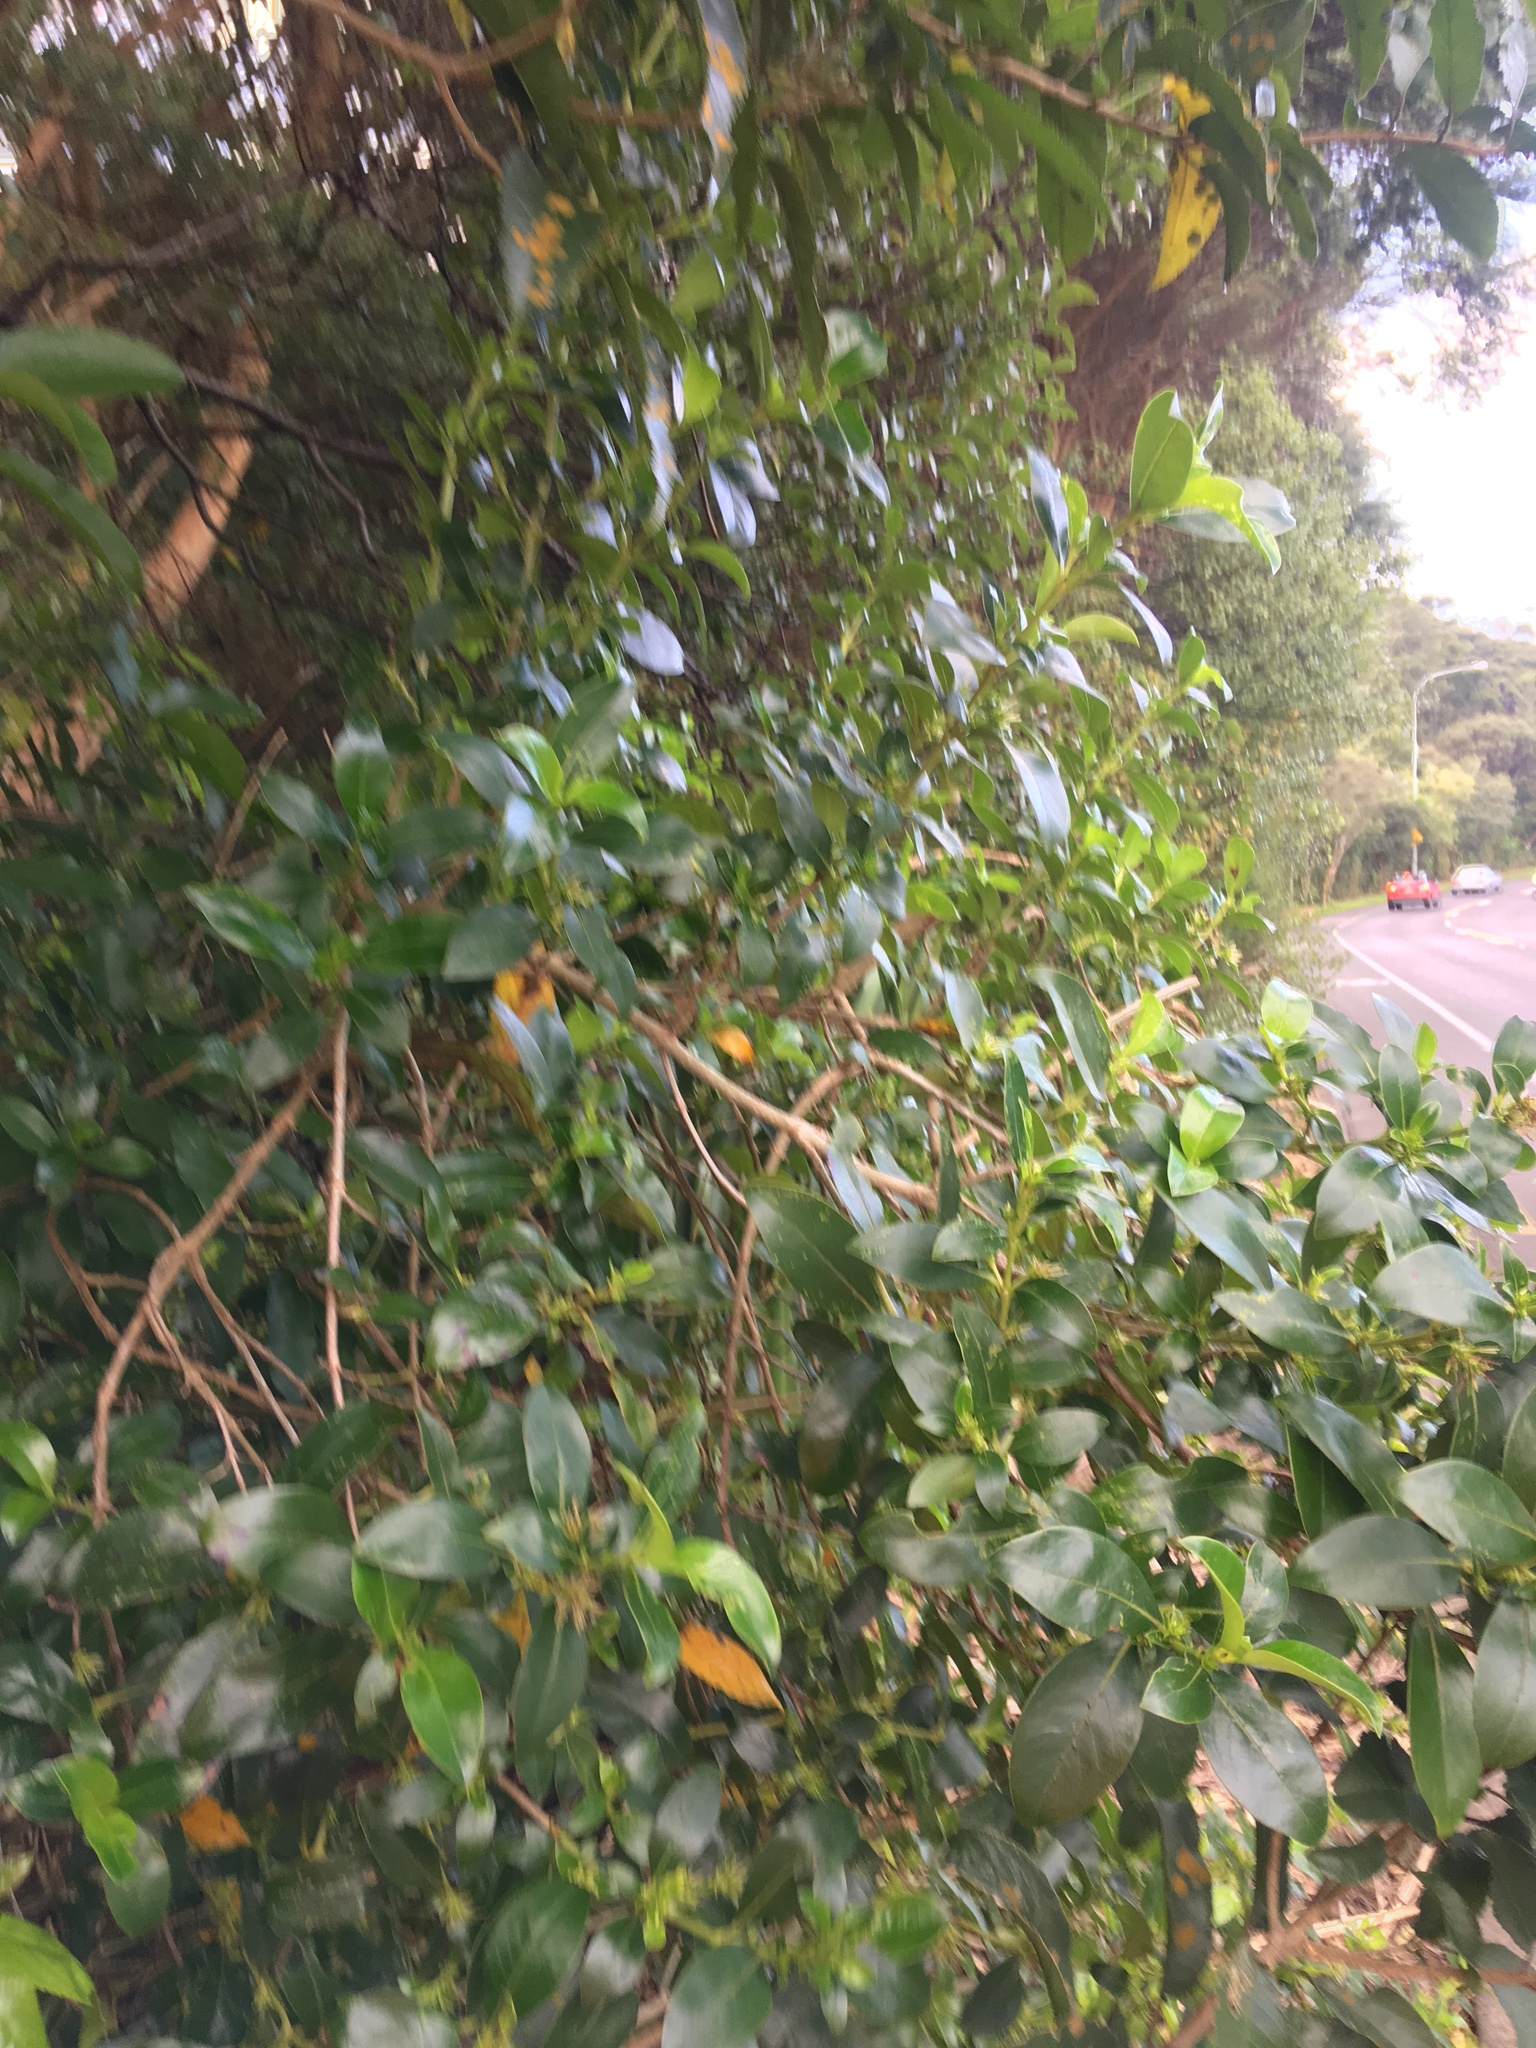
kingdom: Plantae
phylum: Tracheophyta
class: Magnoliopsida
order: Gentianales
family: Rubiaceae
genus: Coprosma
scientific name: Coprosma robusta
